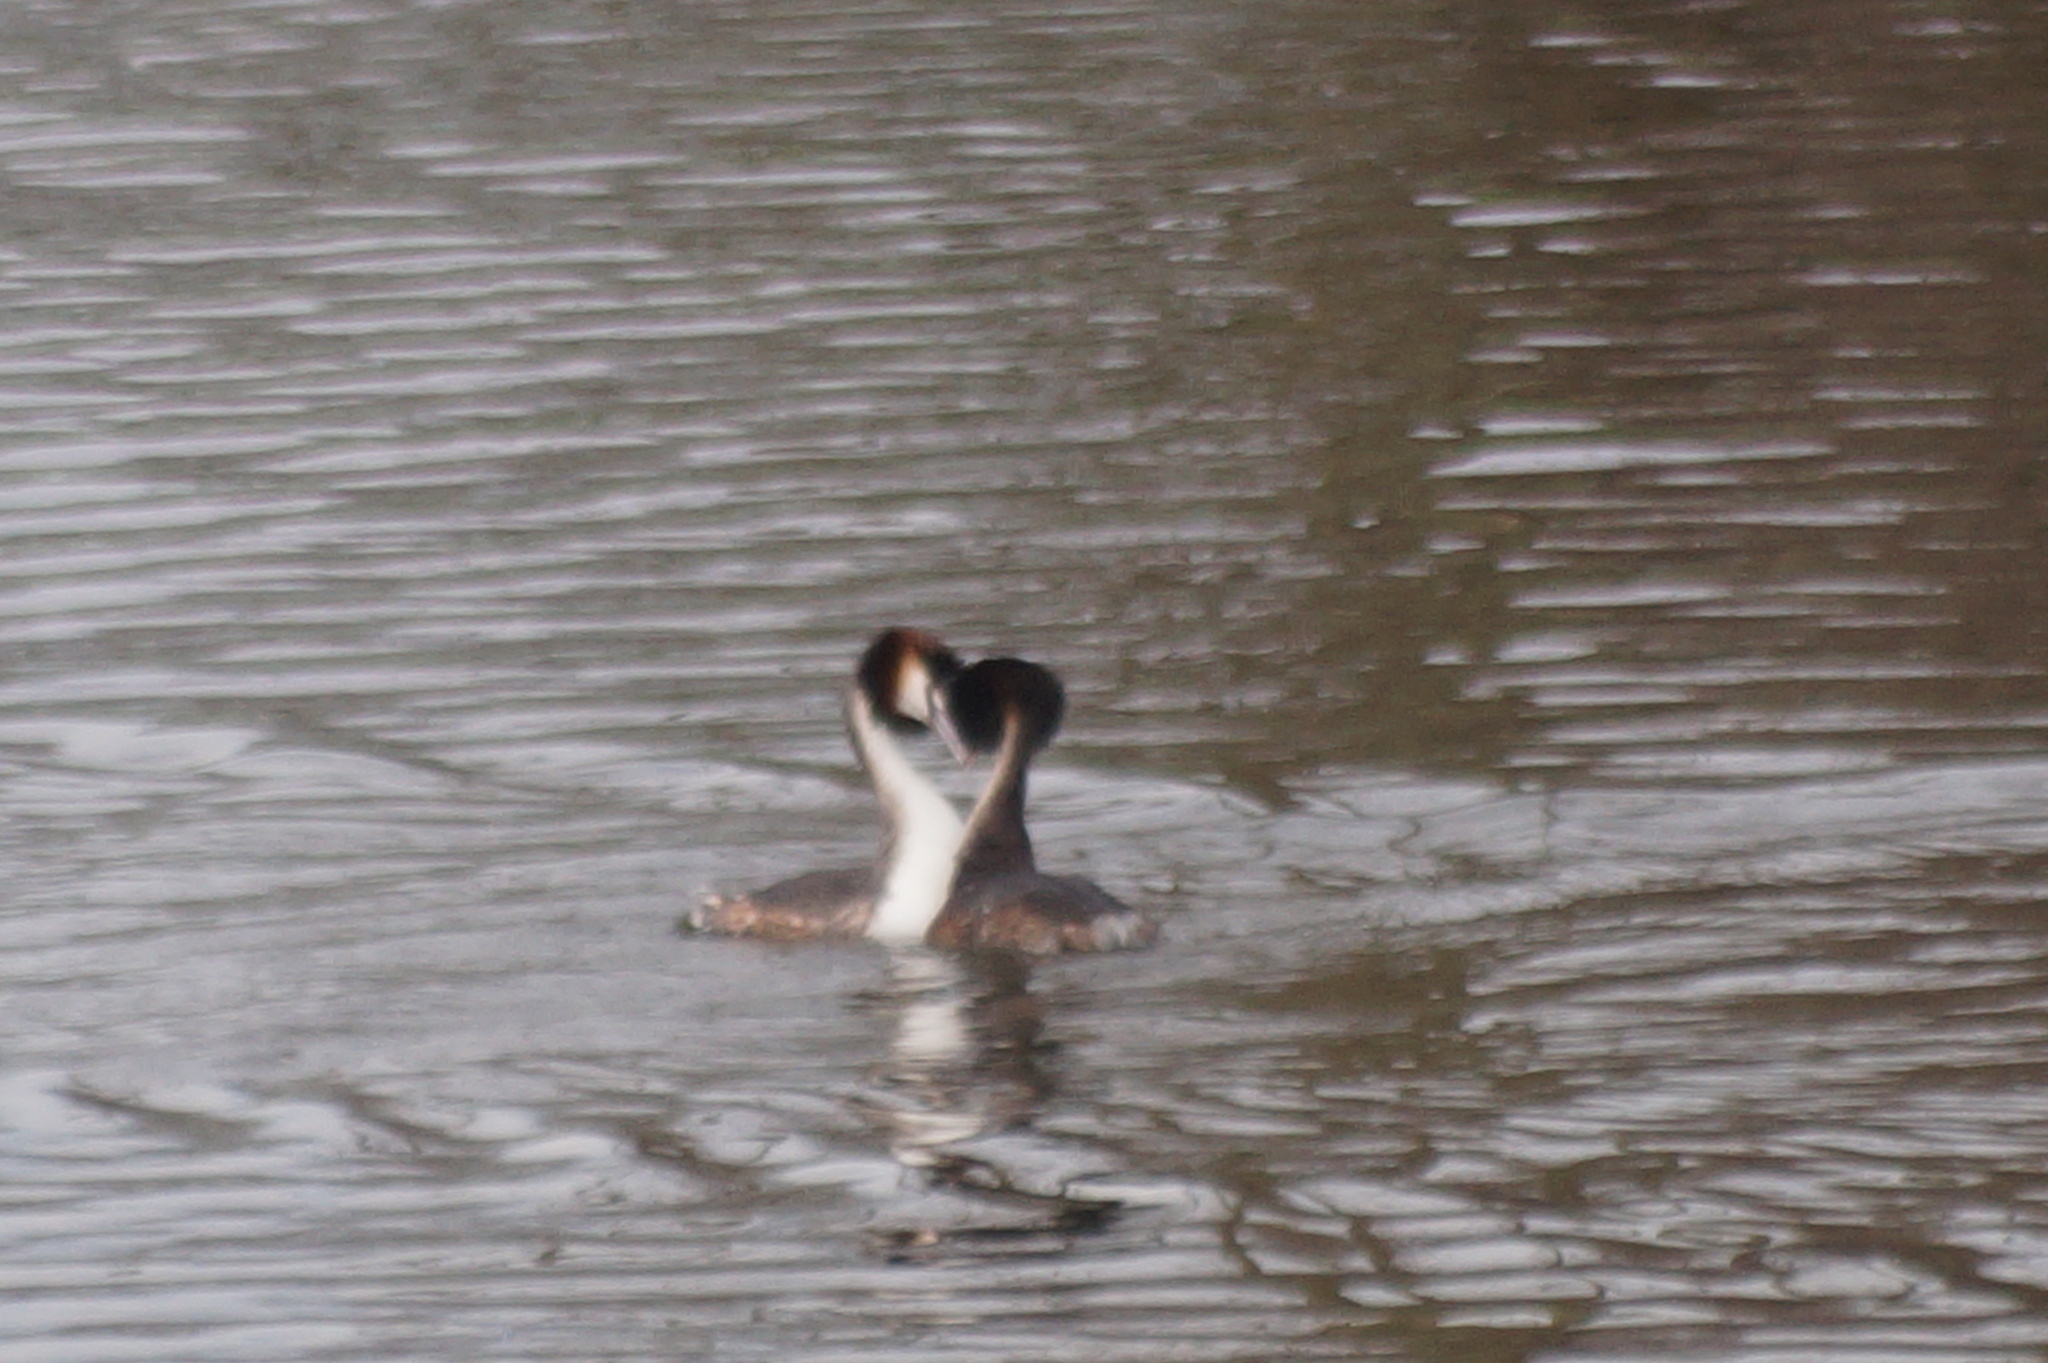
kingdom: Animalia
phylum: Chordata
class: Aves
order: Podicipediformes
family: Podicipedidae
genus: Podiceps
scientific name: Podiceps cristatus
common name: Great crested grebe
